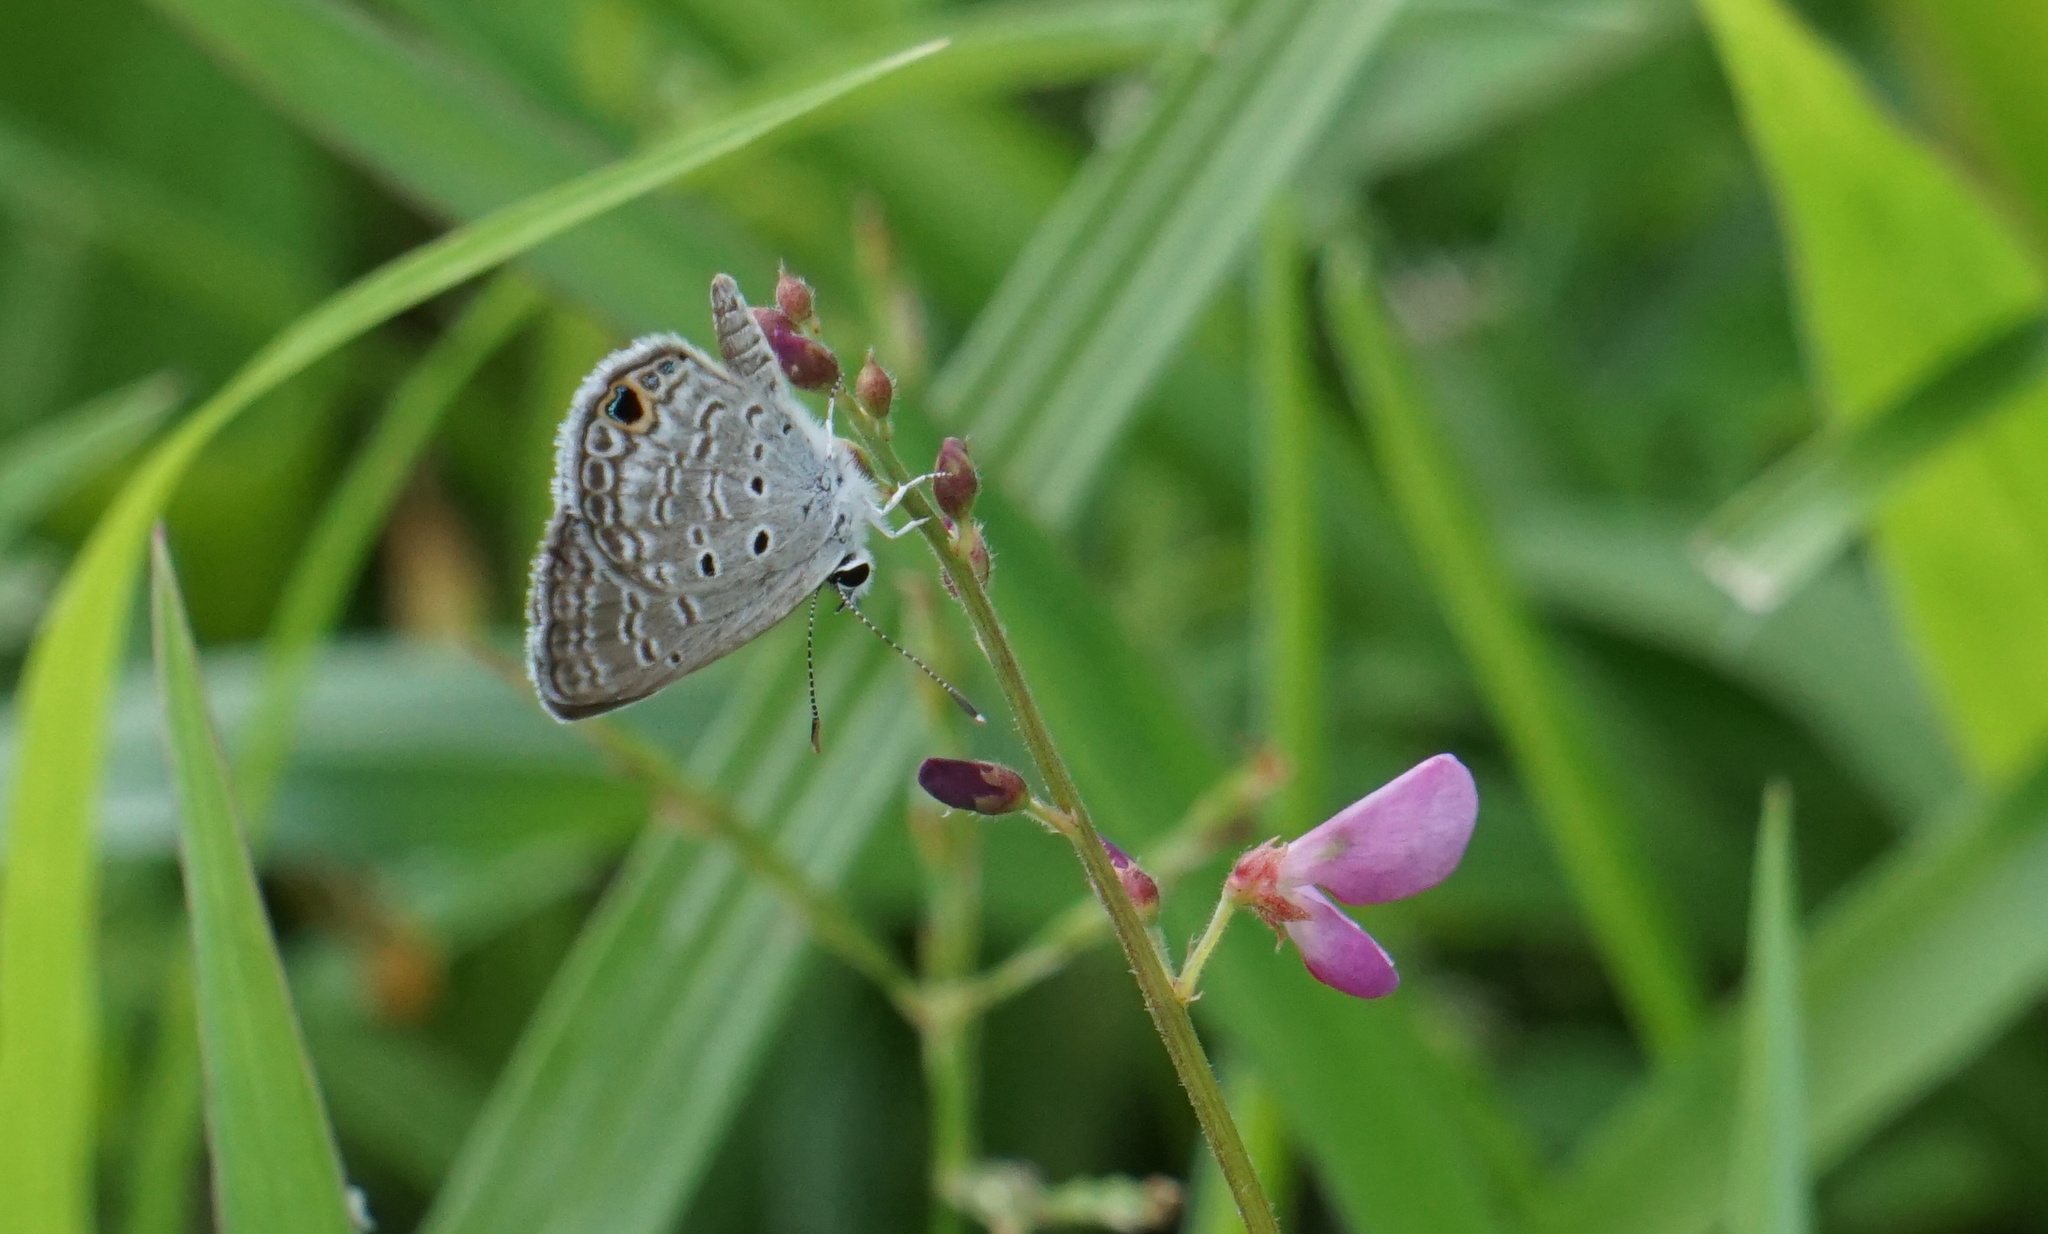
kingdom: Animalia
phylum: Arthropoda
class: Insecta
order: Lepidoptera
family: Lycaenidae
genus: Hemiargus
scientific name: Hemiargus ceraunus
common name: Ceraunus blue
